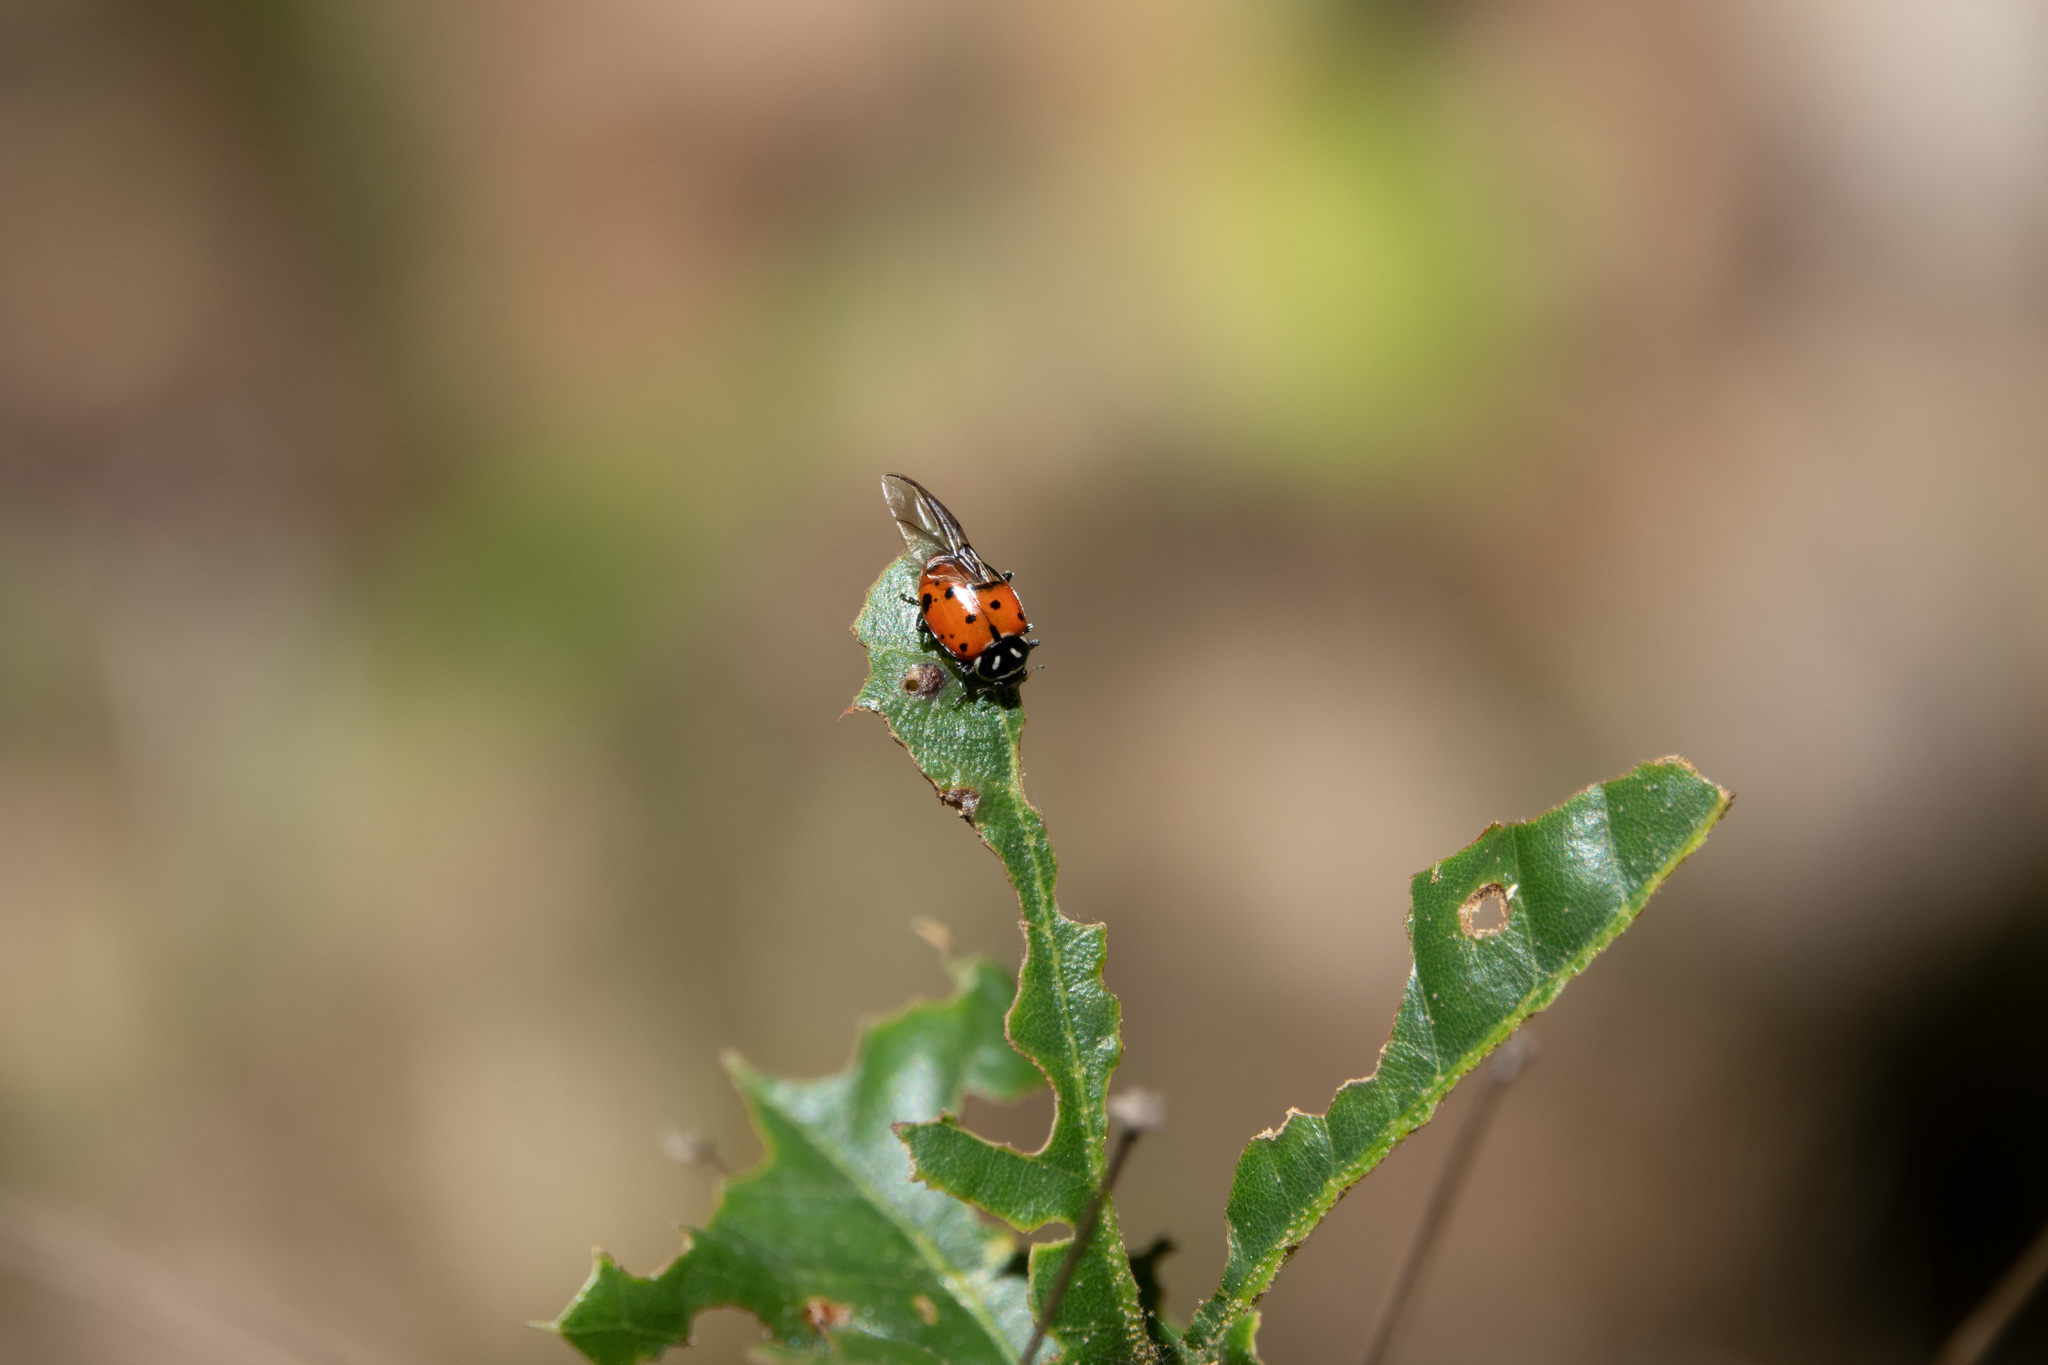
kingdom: Animalia
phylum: Arthropoda
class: Insecta
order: Coleoptera
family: Coccinellidae
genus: Hippodamia
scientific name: Hippodamia convergens
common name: Convergent lady beetle
